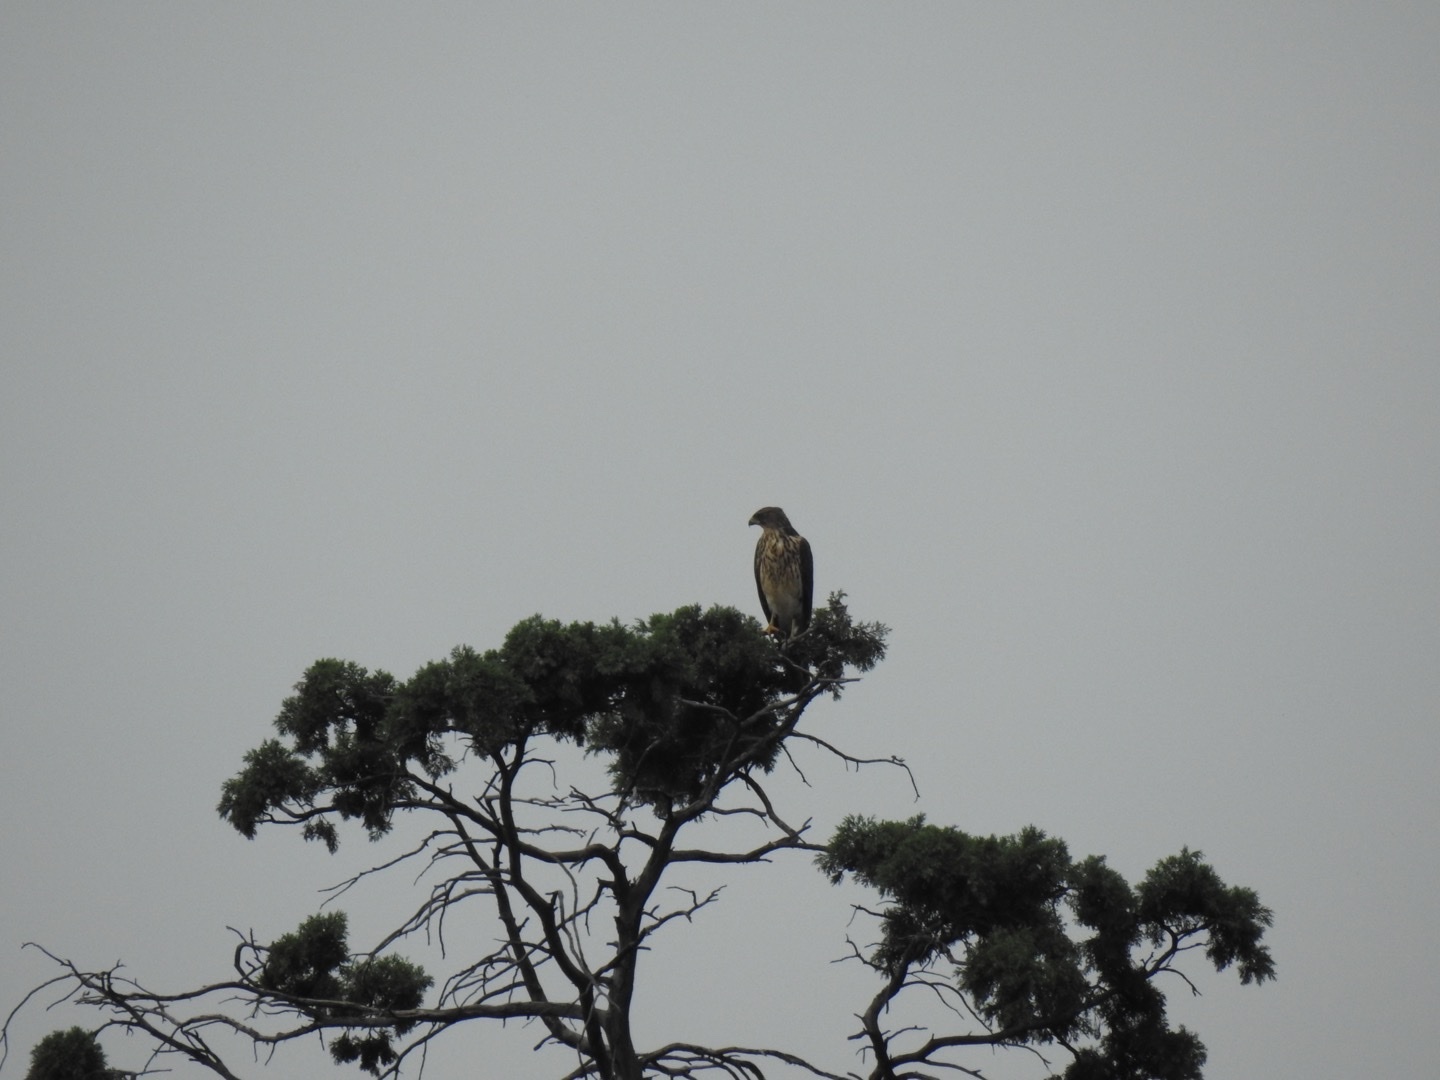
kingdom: Animalia
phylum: Chordata
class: Aves
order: Accipitriformes
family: Accipitridae
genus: Accipiter
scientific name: Accipiter melanoleucus
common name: Black sparrowhawk
